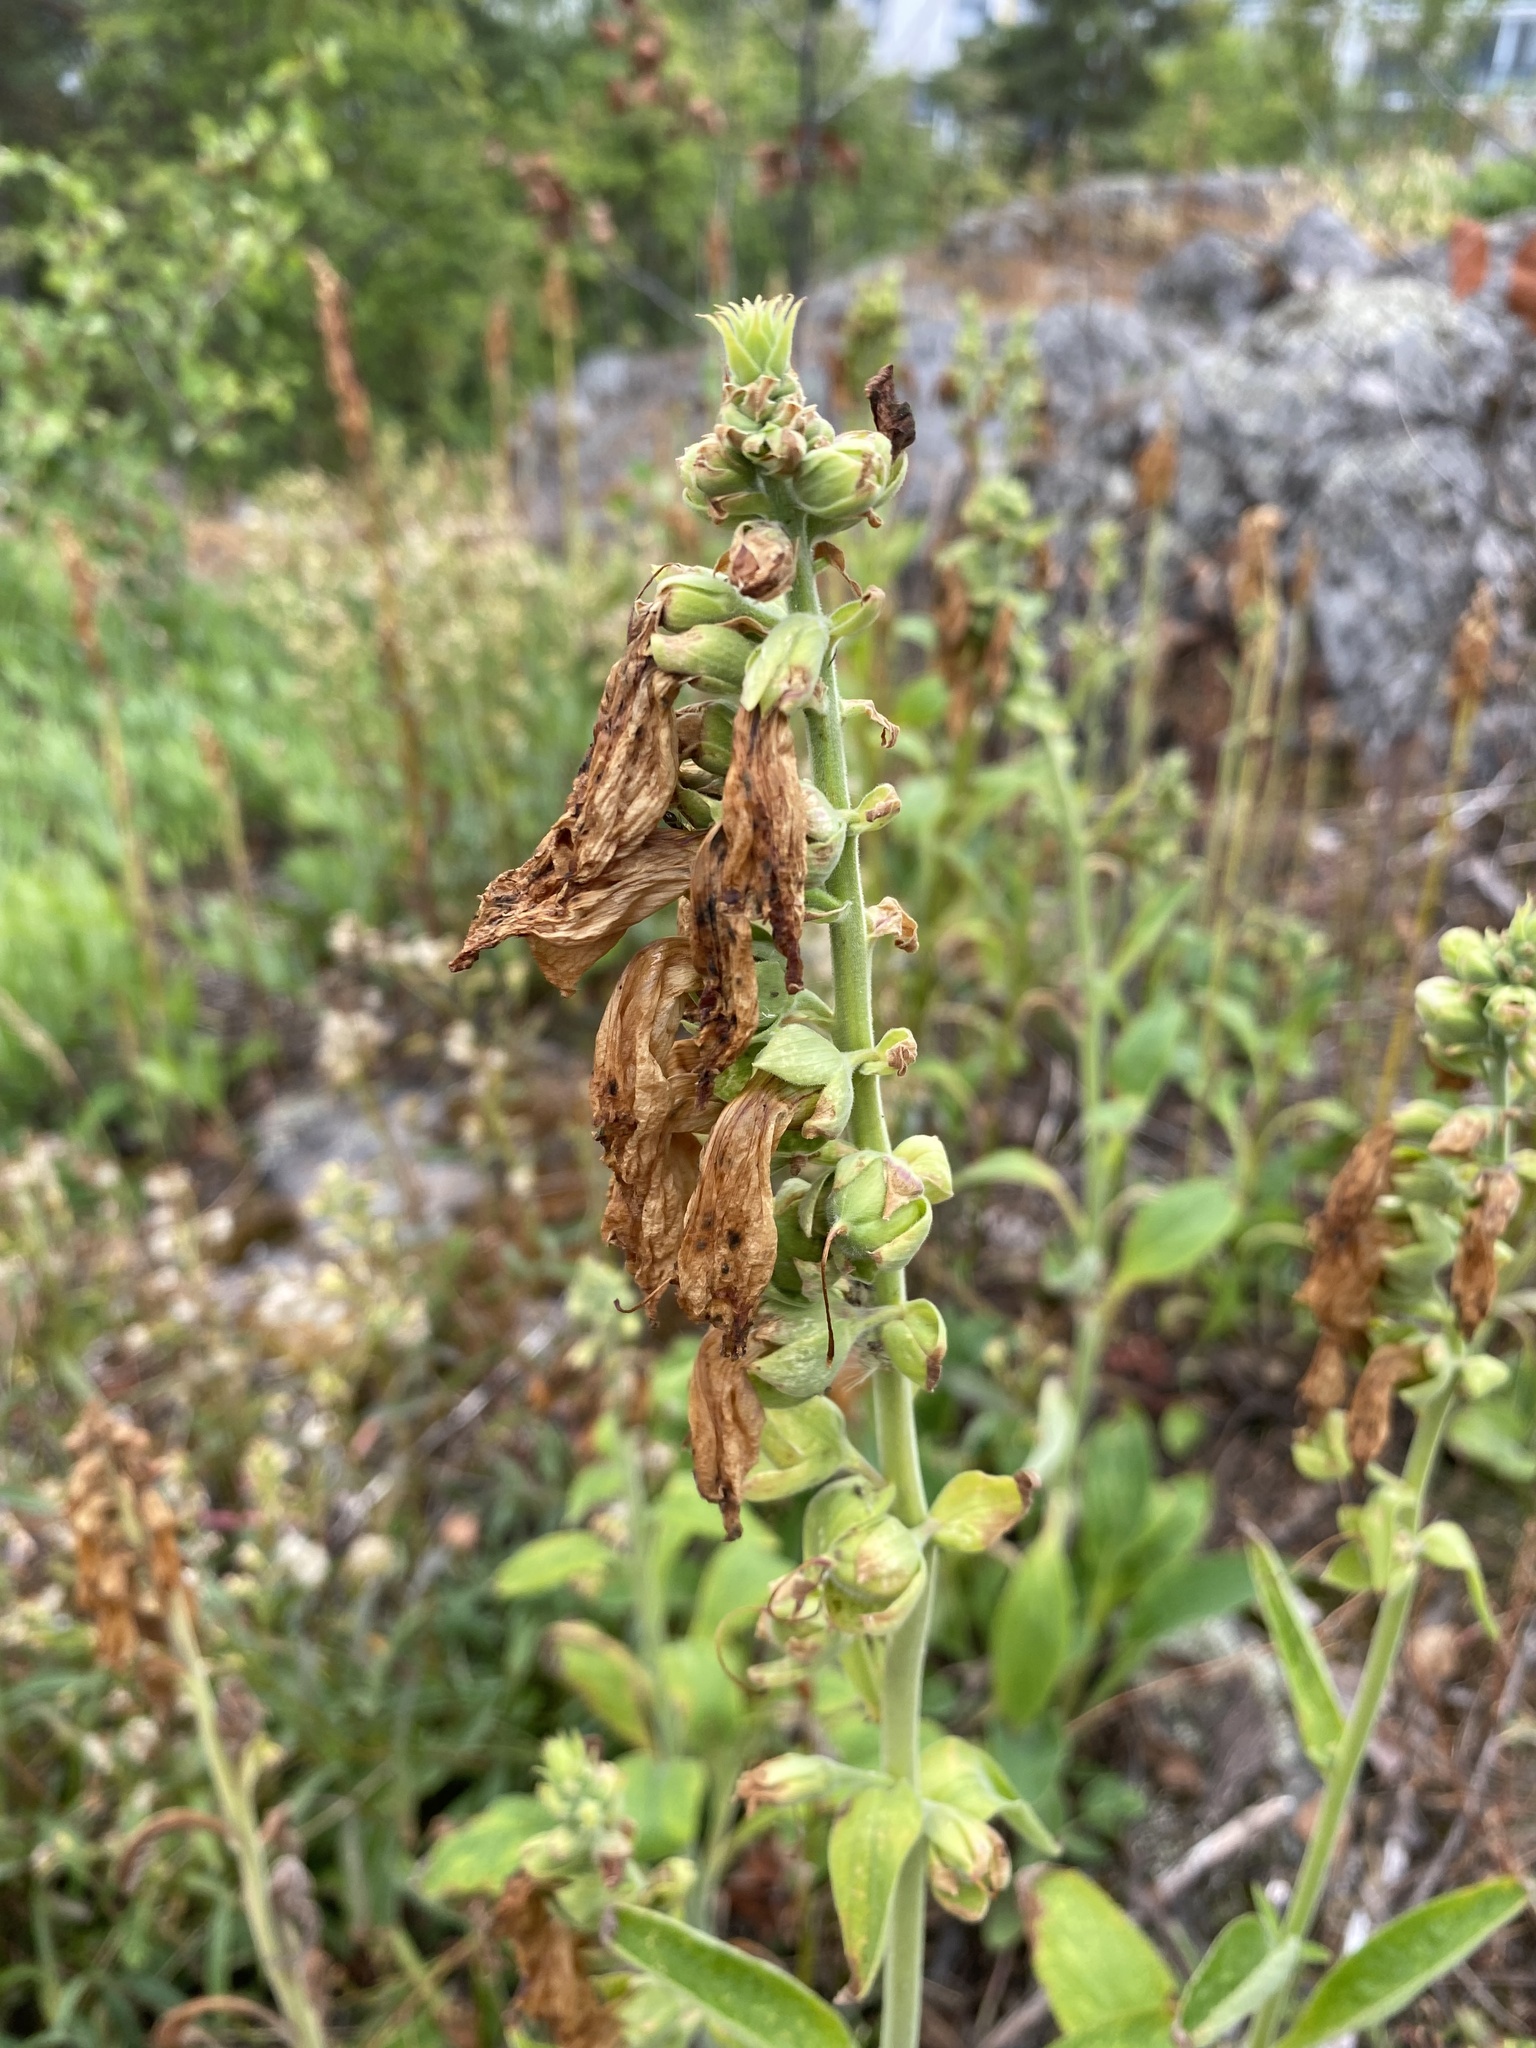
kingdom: Plantae
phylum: Tracheophyta
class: Magnoliopsida
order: Lamiales
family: Plantaginaceae
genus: Digitalis
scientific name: Digitalis purpurea
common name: Foxglove
